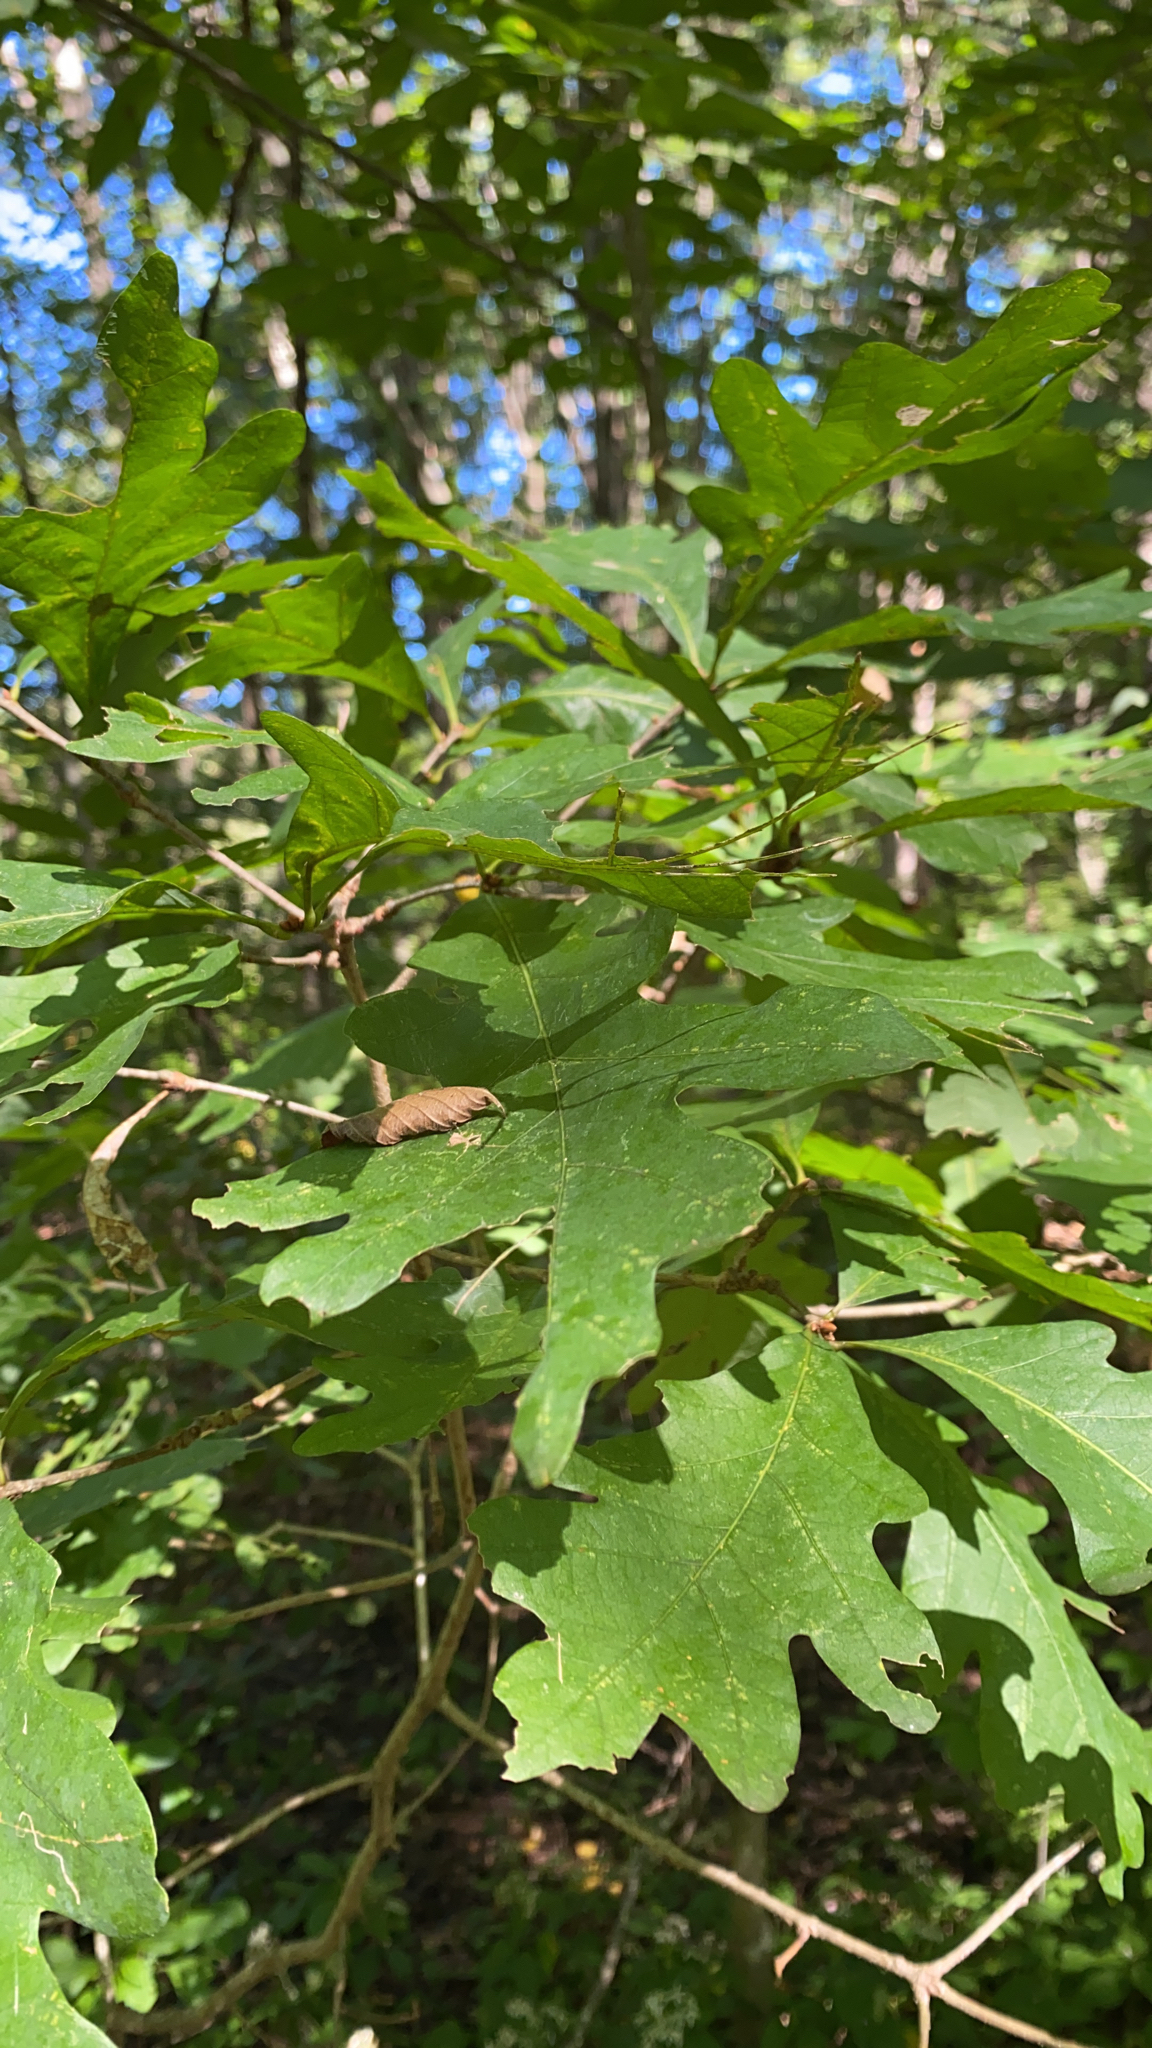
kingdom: Plantae
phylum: Tracheophyta
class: Magnoliopsida
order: Fagales
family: Fagaceae
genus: Quercus
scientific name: Quercus alba
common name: White oak
